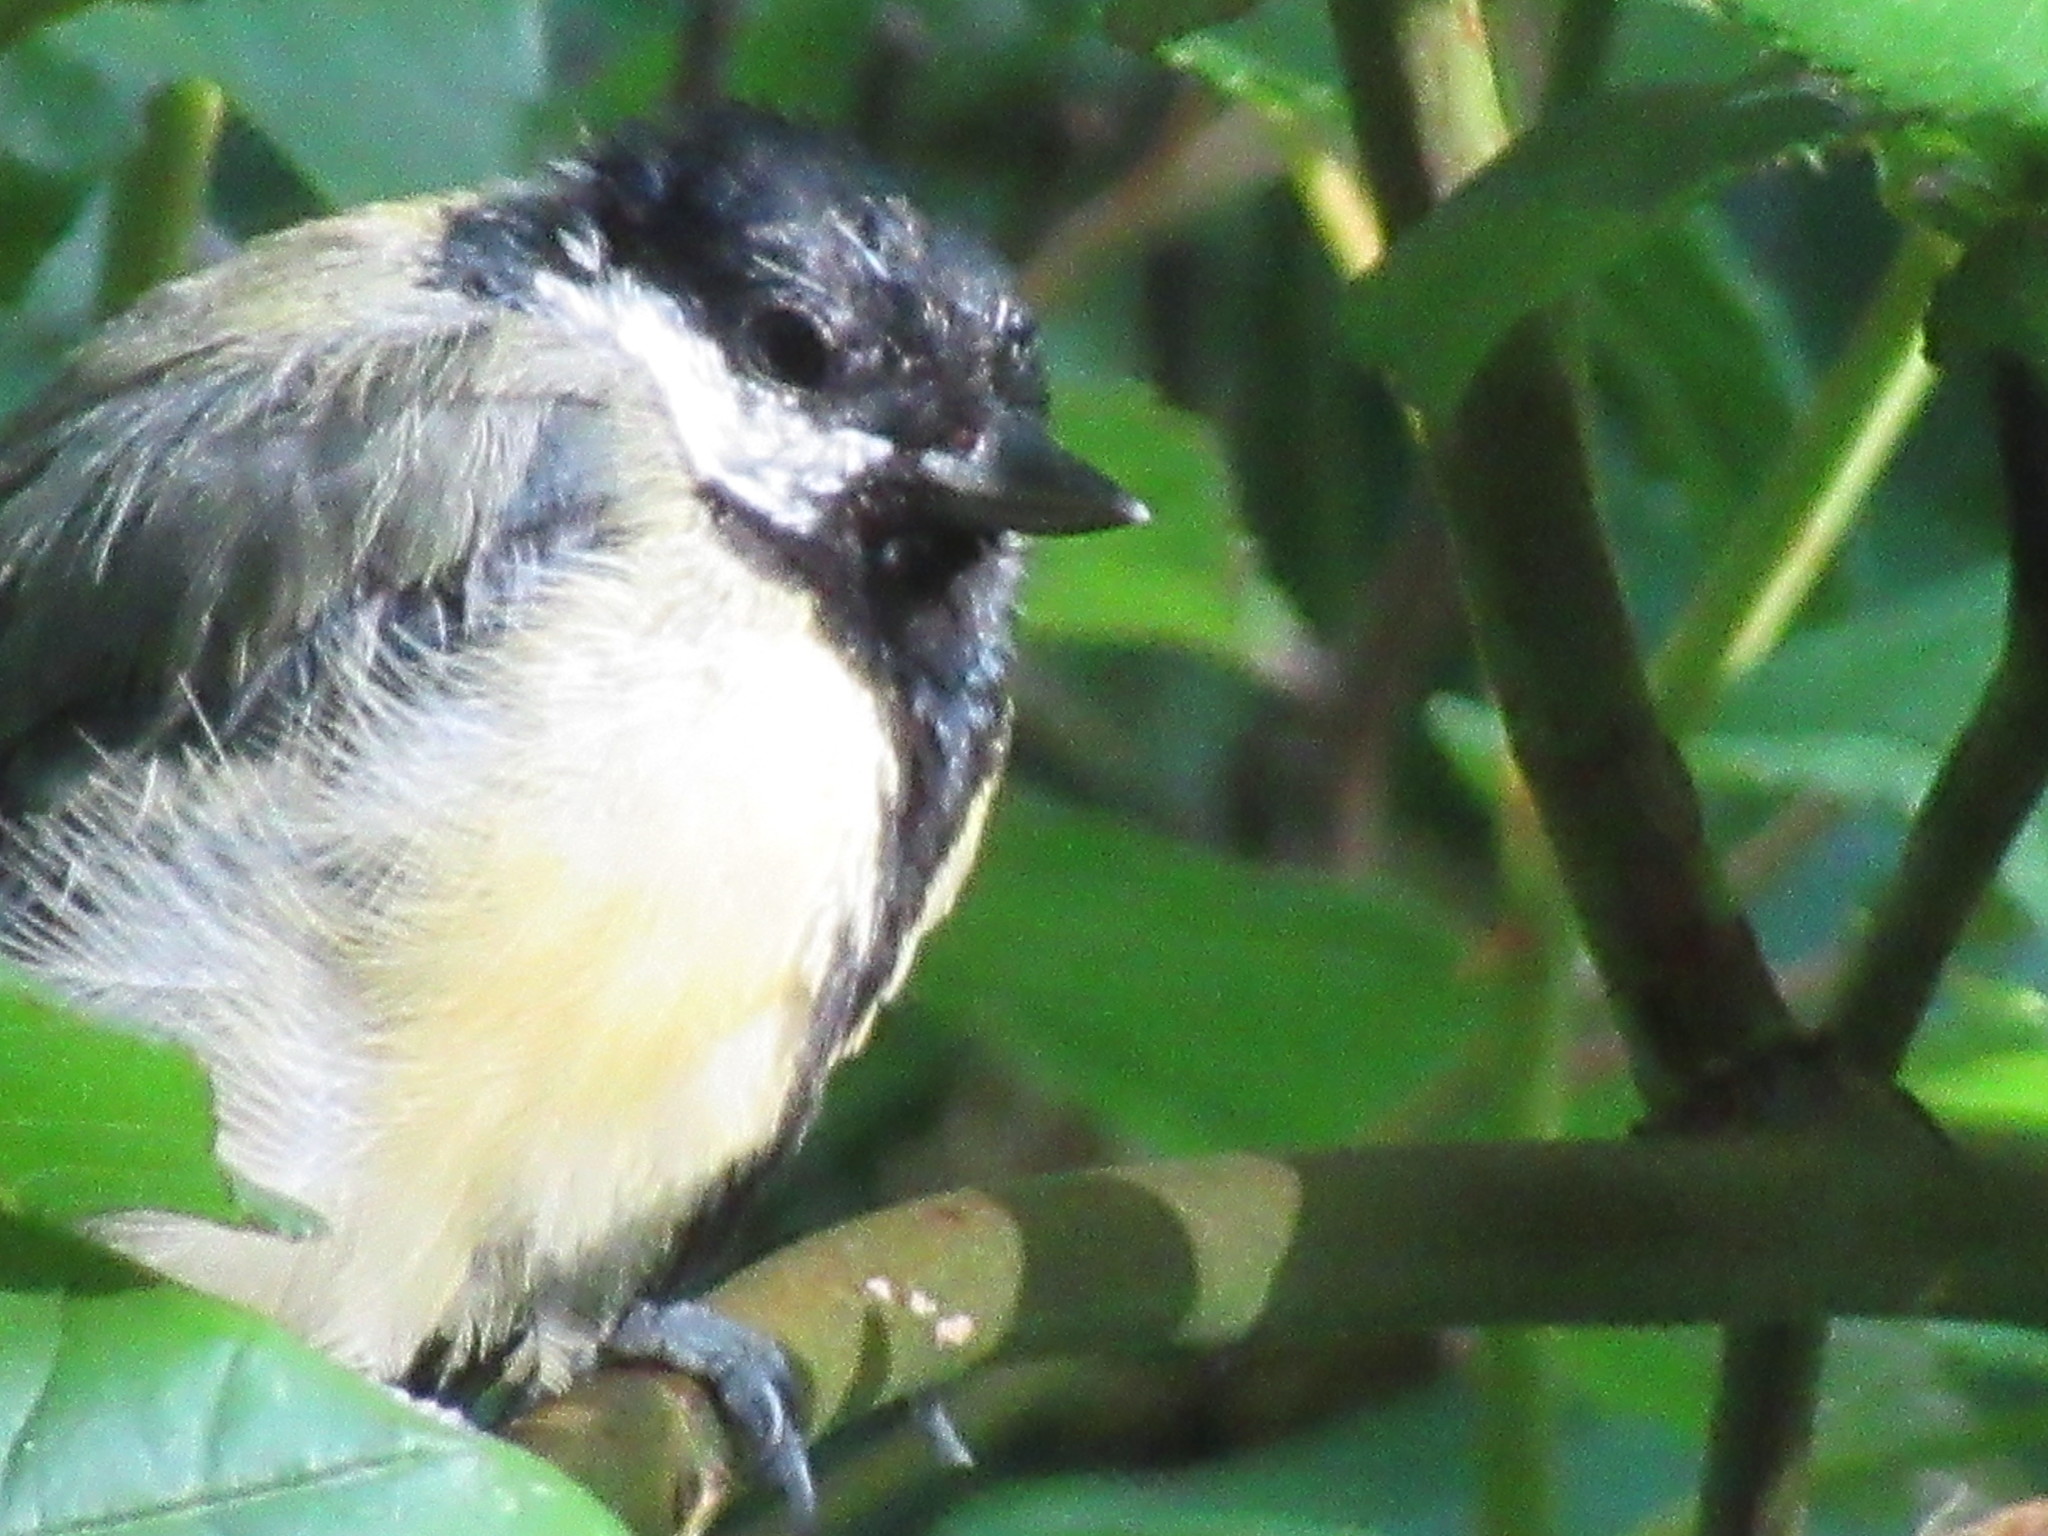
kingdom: Animalia
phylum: Chordata
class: Aves
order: Passeriformes
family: Paridae
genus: Parus
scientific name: Parus major
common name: Great tit
